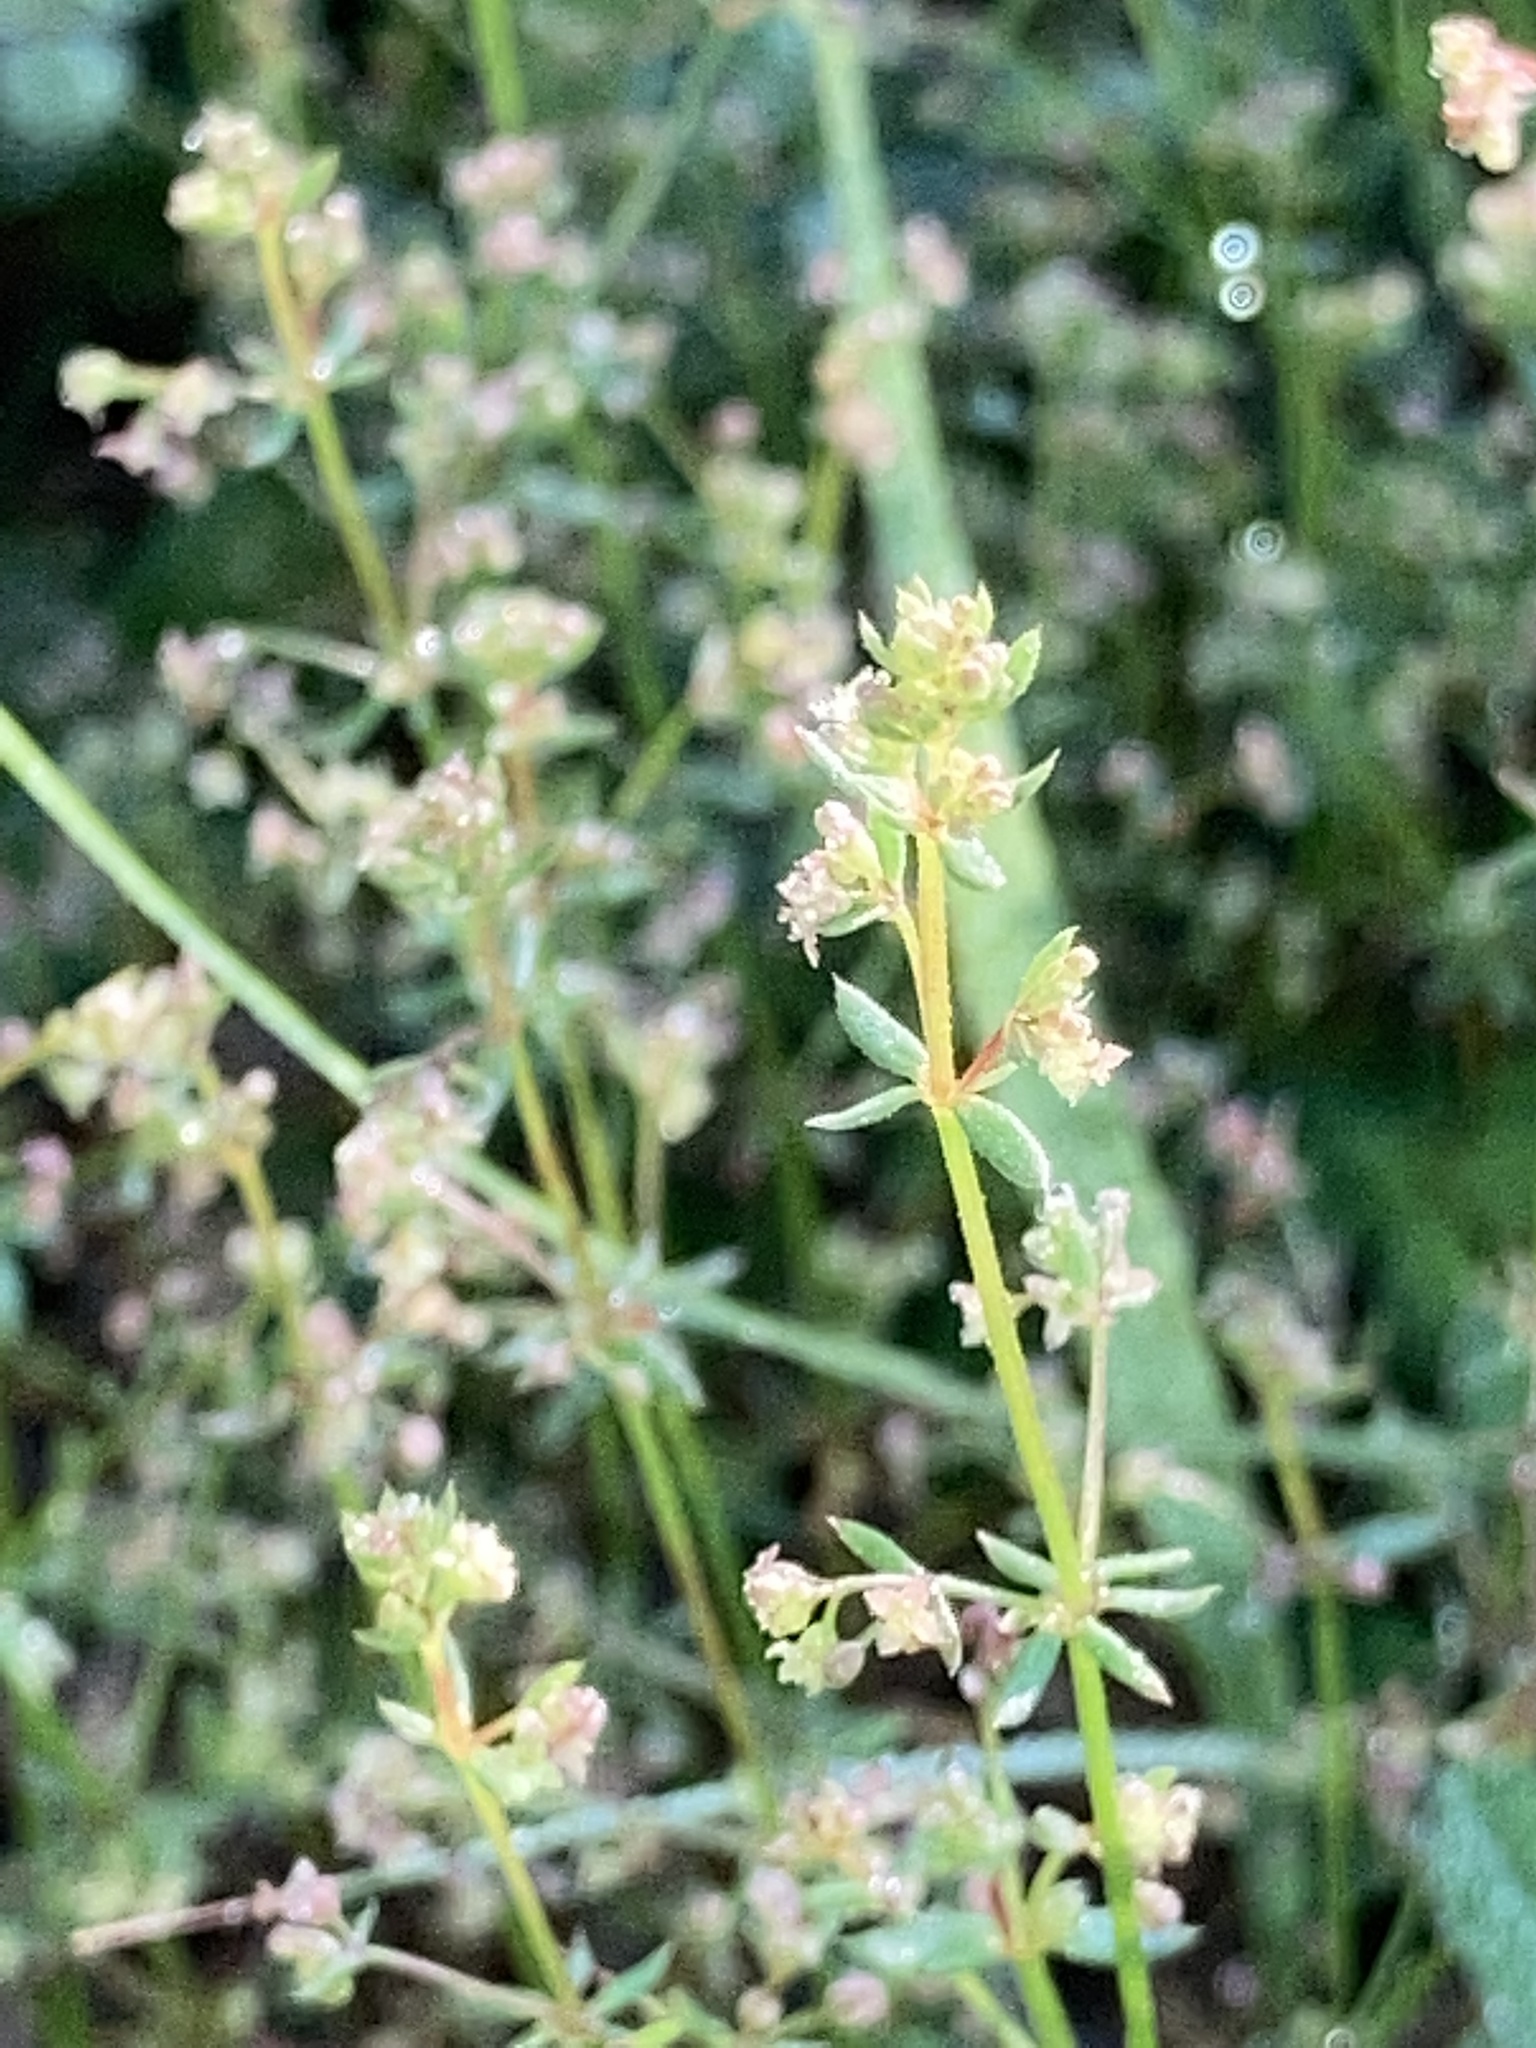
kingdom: Plantae
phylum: Tracheophyta
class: Magnoliopsida
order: Brassicales
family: Brassicaceae
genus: Lepidium
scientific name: Lepidium virginicum
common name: Least pepperwort
